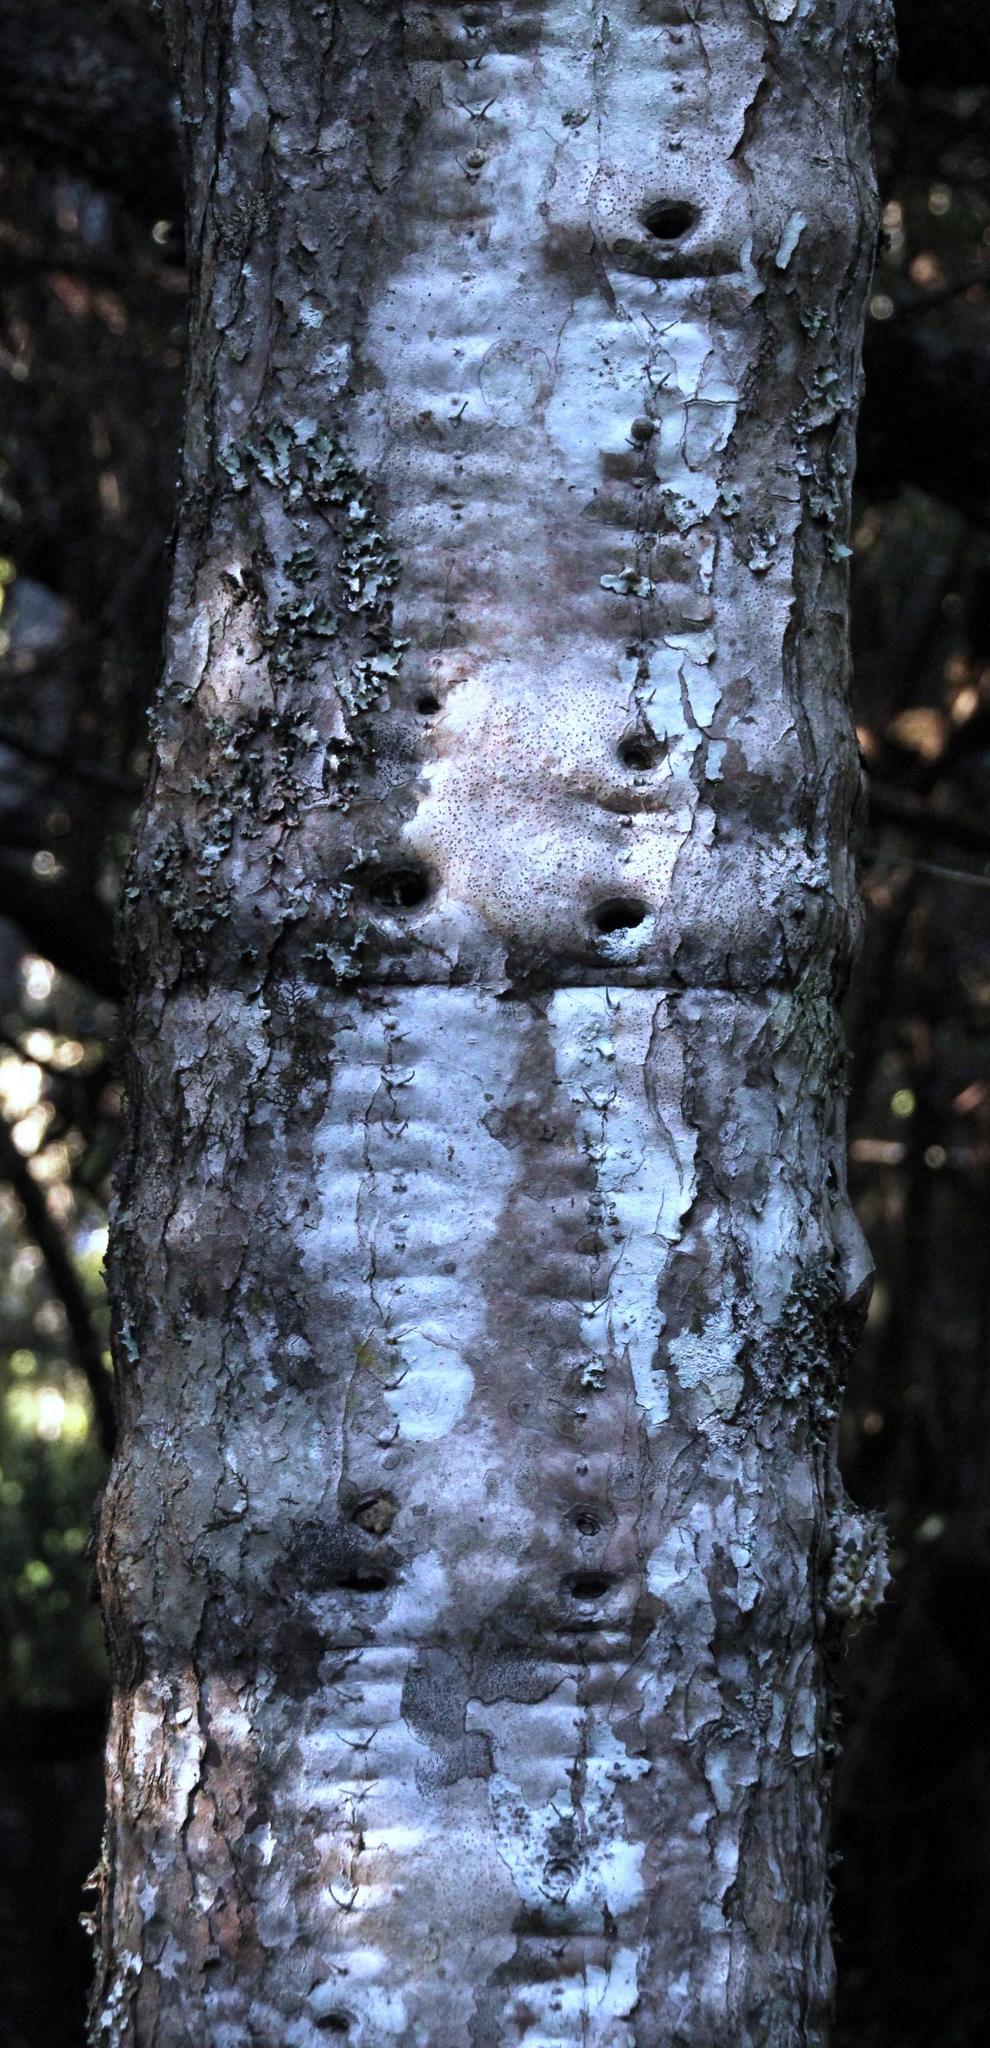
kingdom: Plantae
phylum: Tracheophyta
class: Magnoliopsida
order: Malpighiales
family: Euphorbiaceae
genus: Euphorbia
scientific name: Euphorbia triangularis
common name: Chandelier tree
